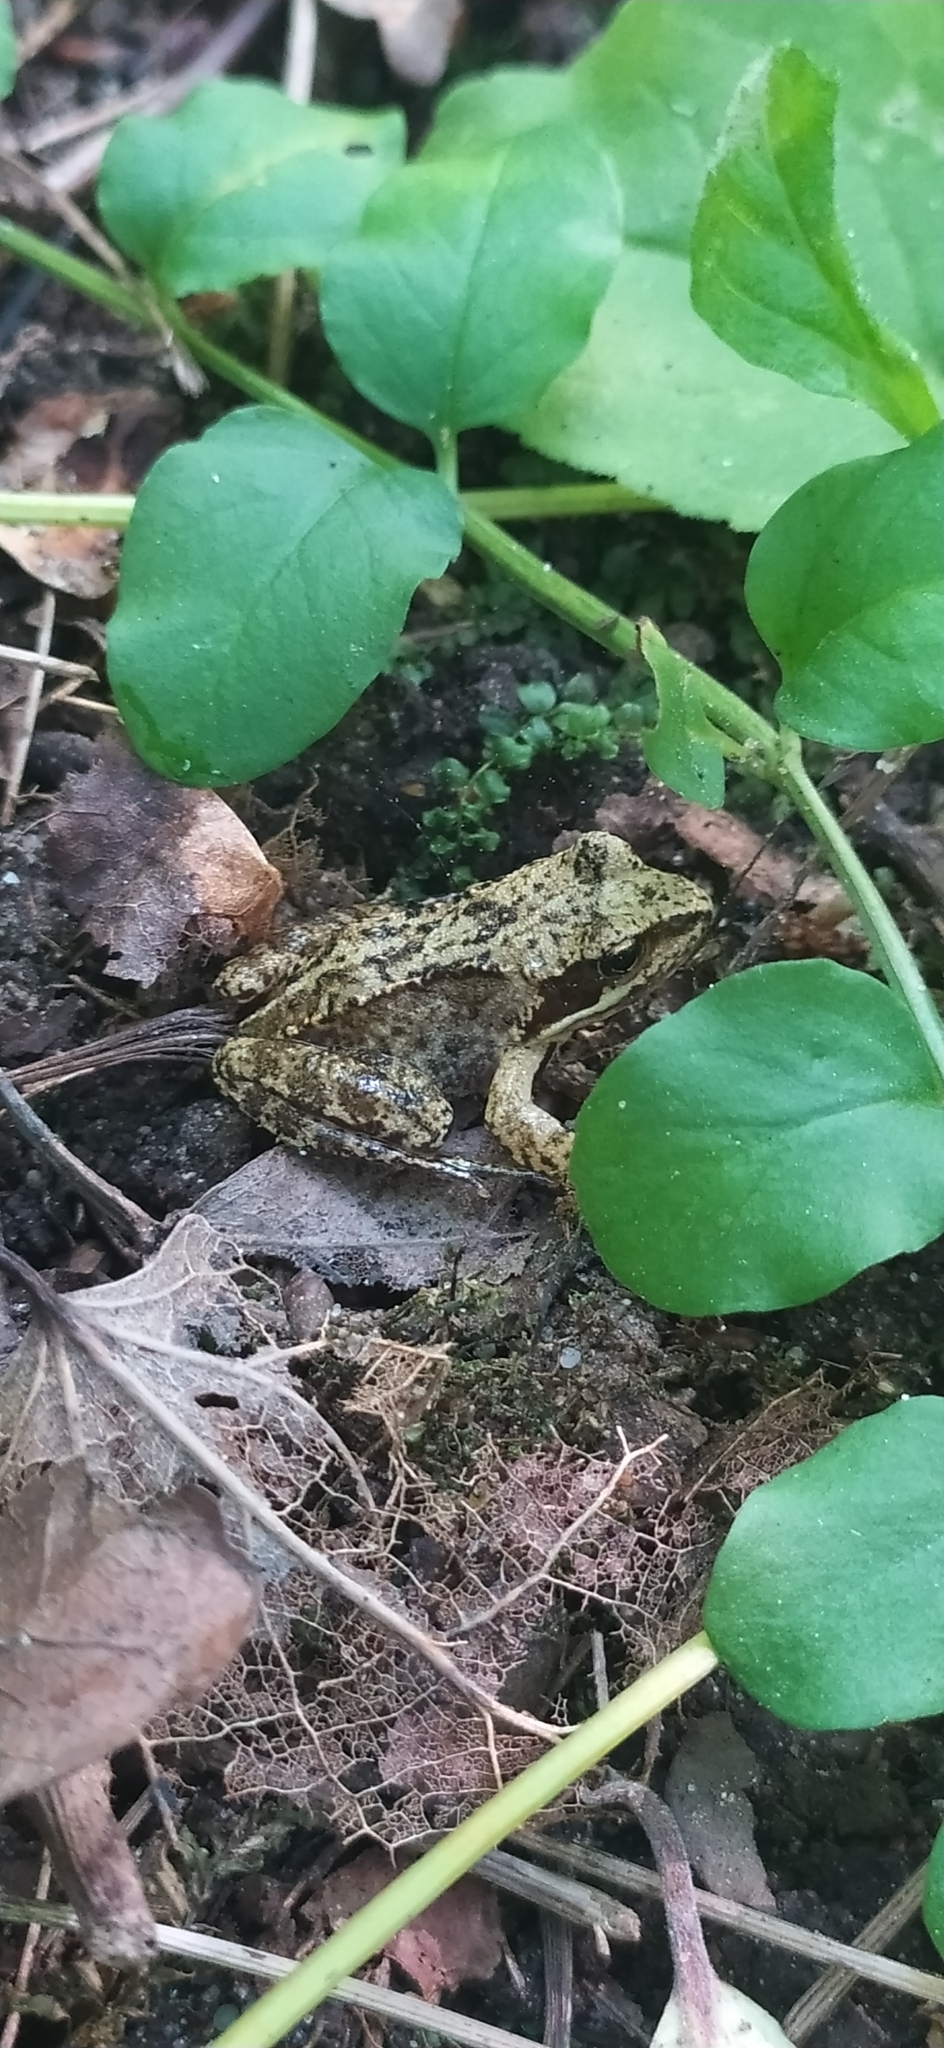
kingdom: Animalia
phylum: Chordata
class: Amphibia
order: Anura
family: Ranidae
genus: Rana
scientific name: Rana temporaria
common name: Common frog
